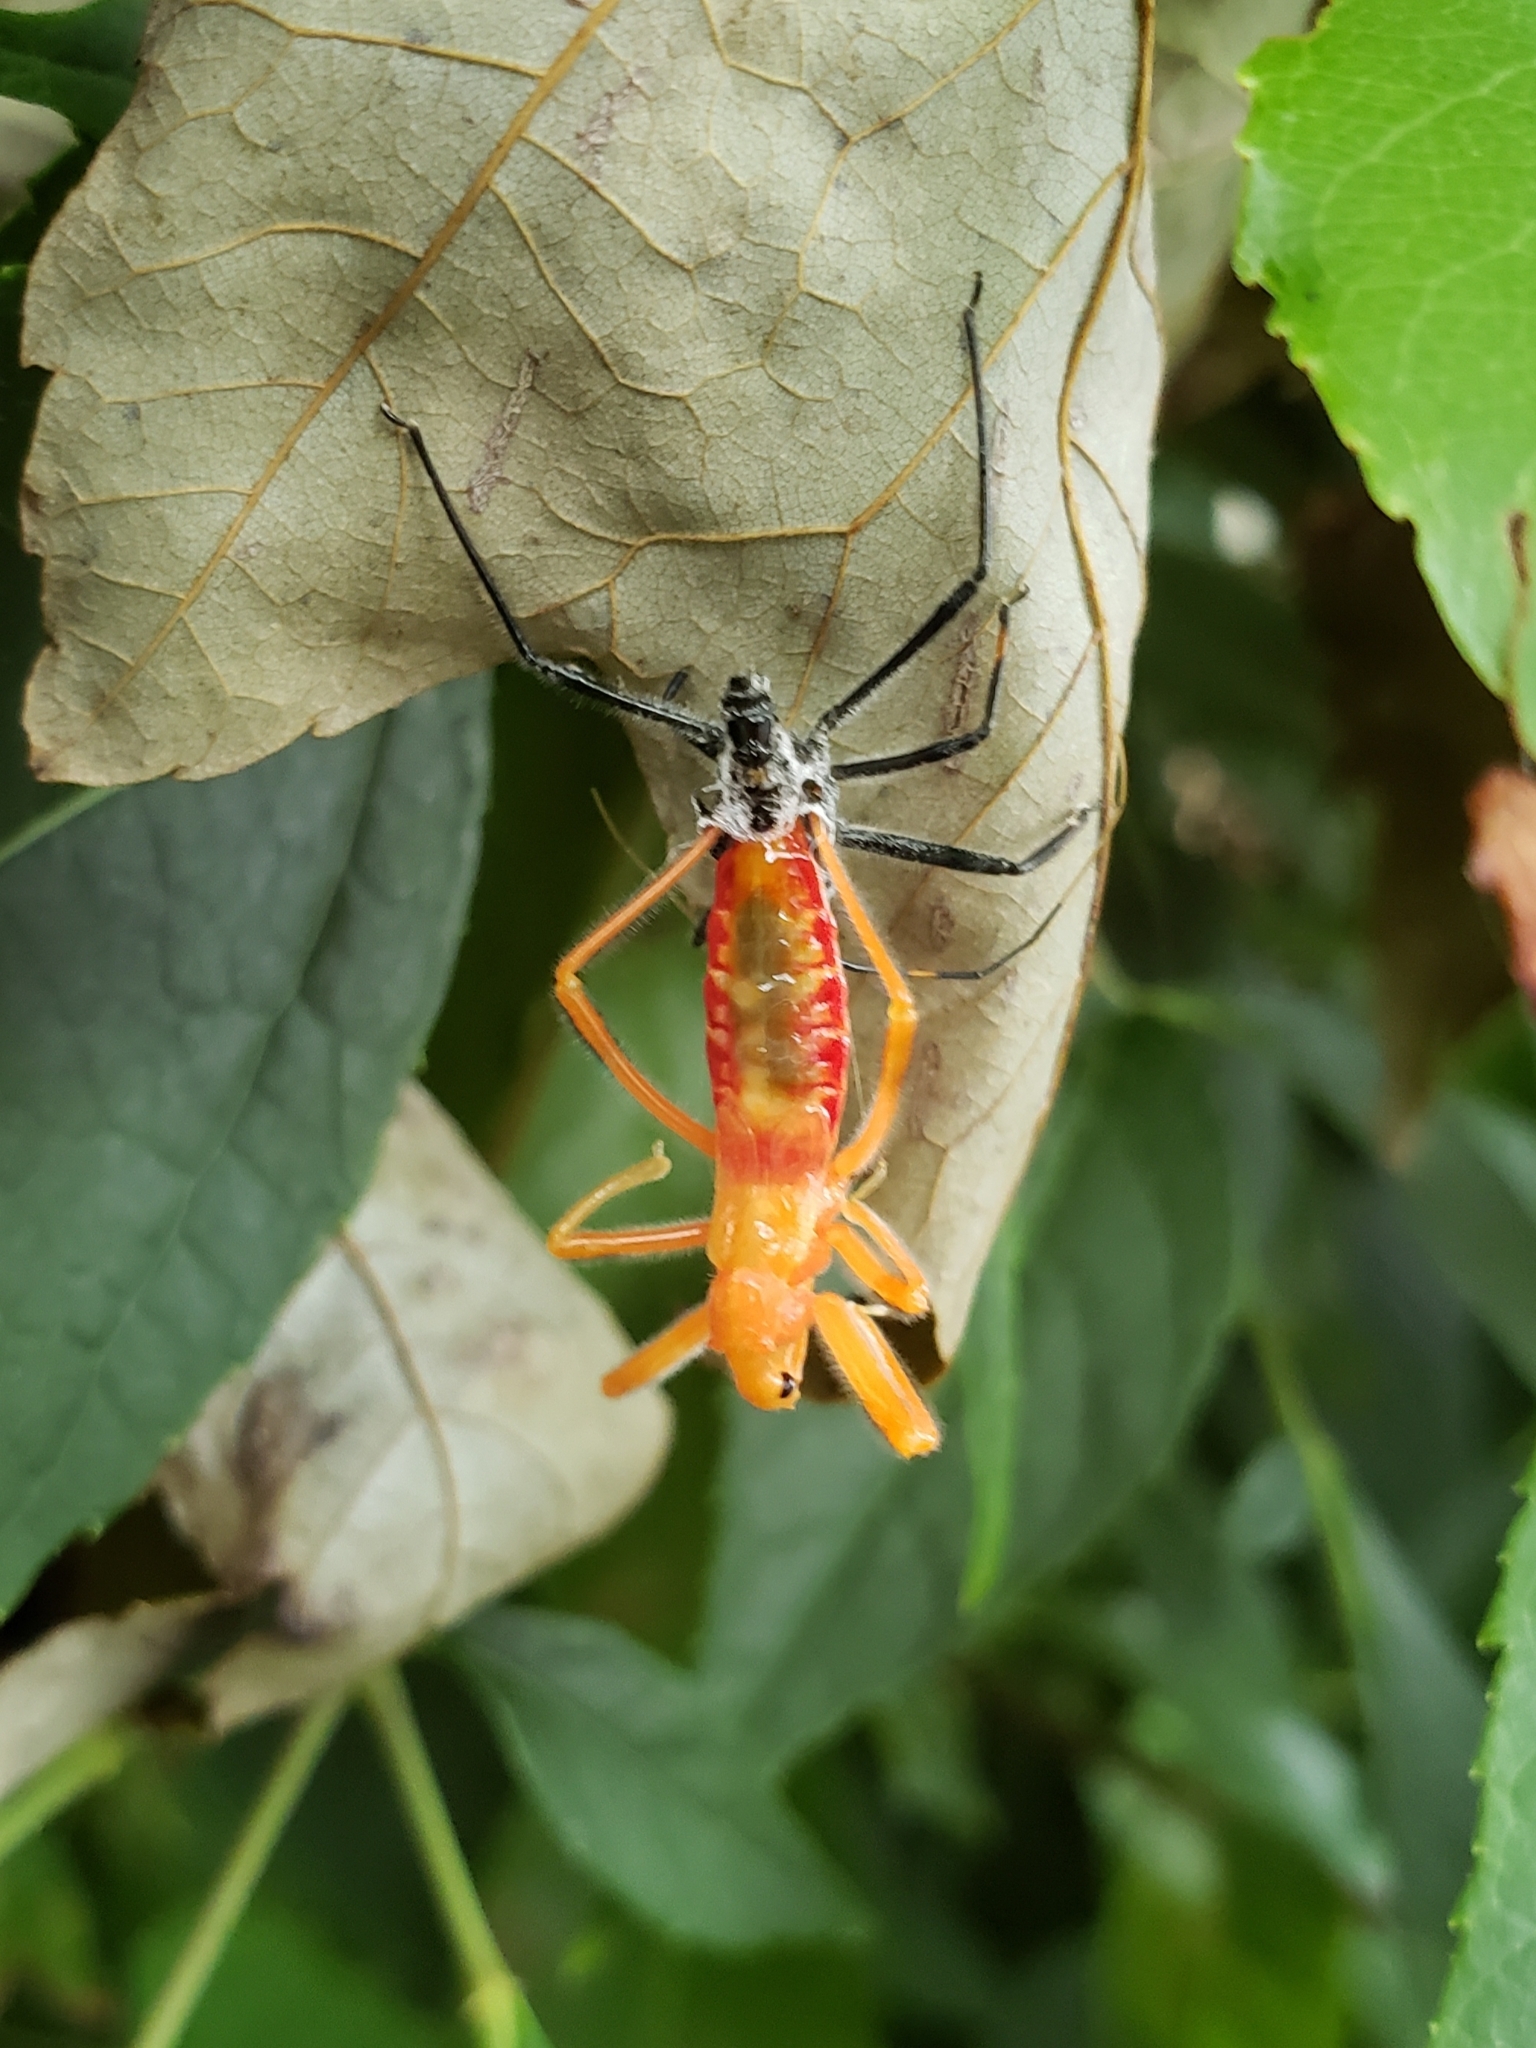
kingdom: Animalia
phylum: Arthropoda
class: Insecta
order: Hemiptera
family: Reduviidae
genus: Arilus
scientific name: Arilus cristatus
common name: North american wheel bug
